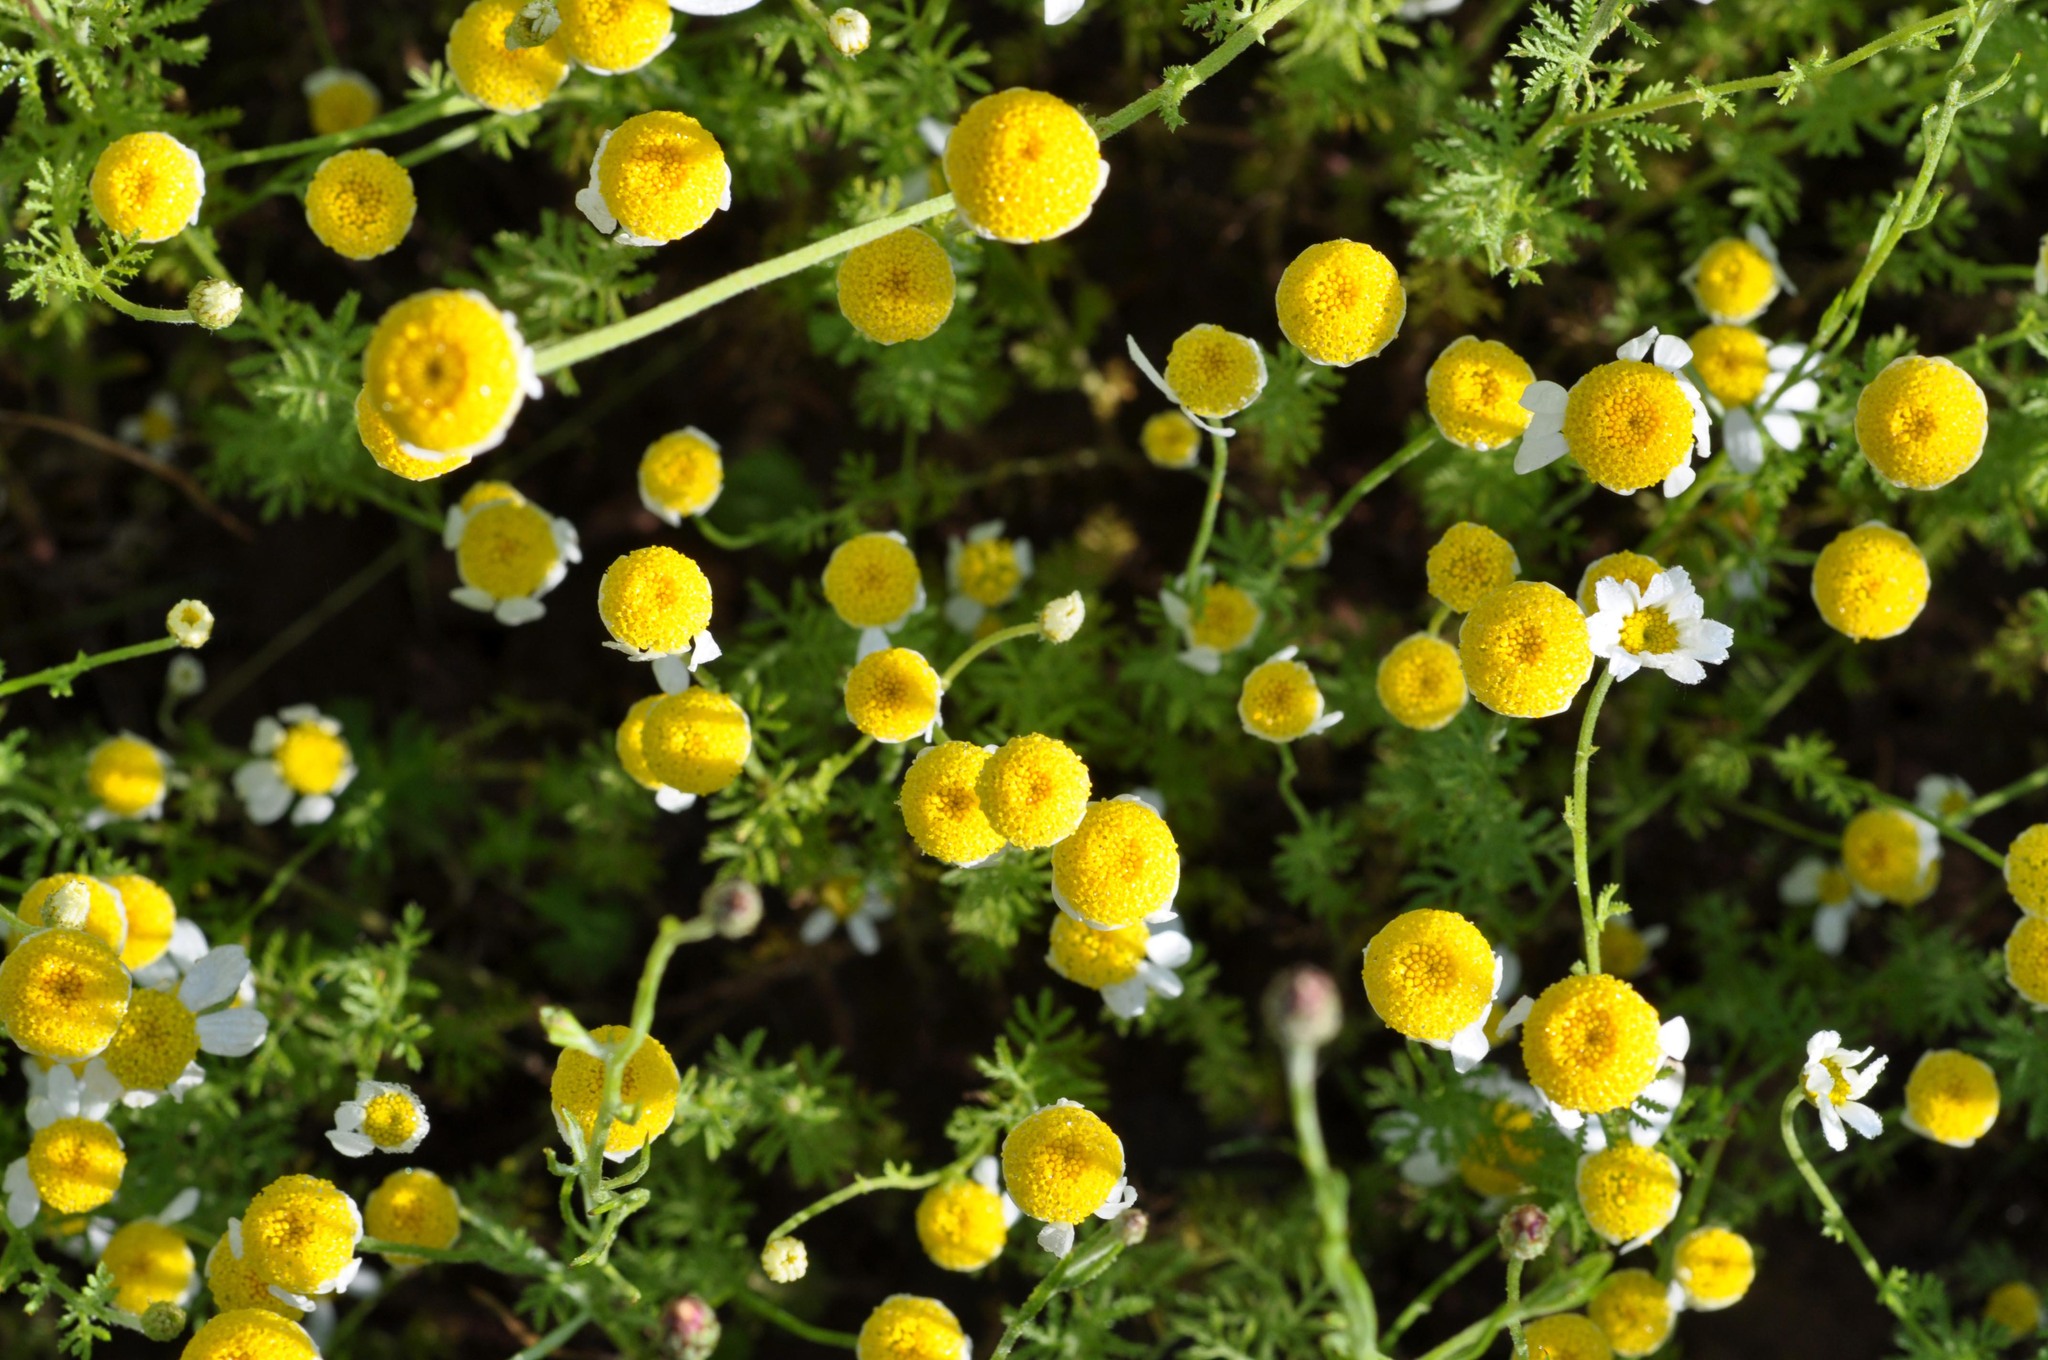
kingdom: Plantae
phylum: Tracheophyta
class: Magnoliopsida
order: Asterales
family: Asteraceae
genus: Cota
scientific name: Cota austriaca
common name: Austrian chamomile
